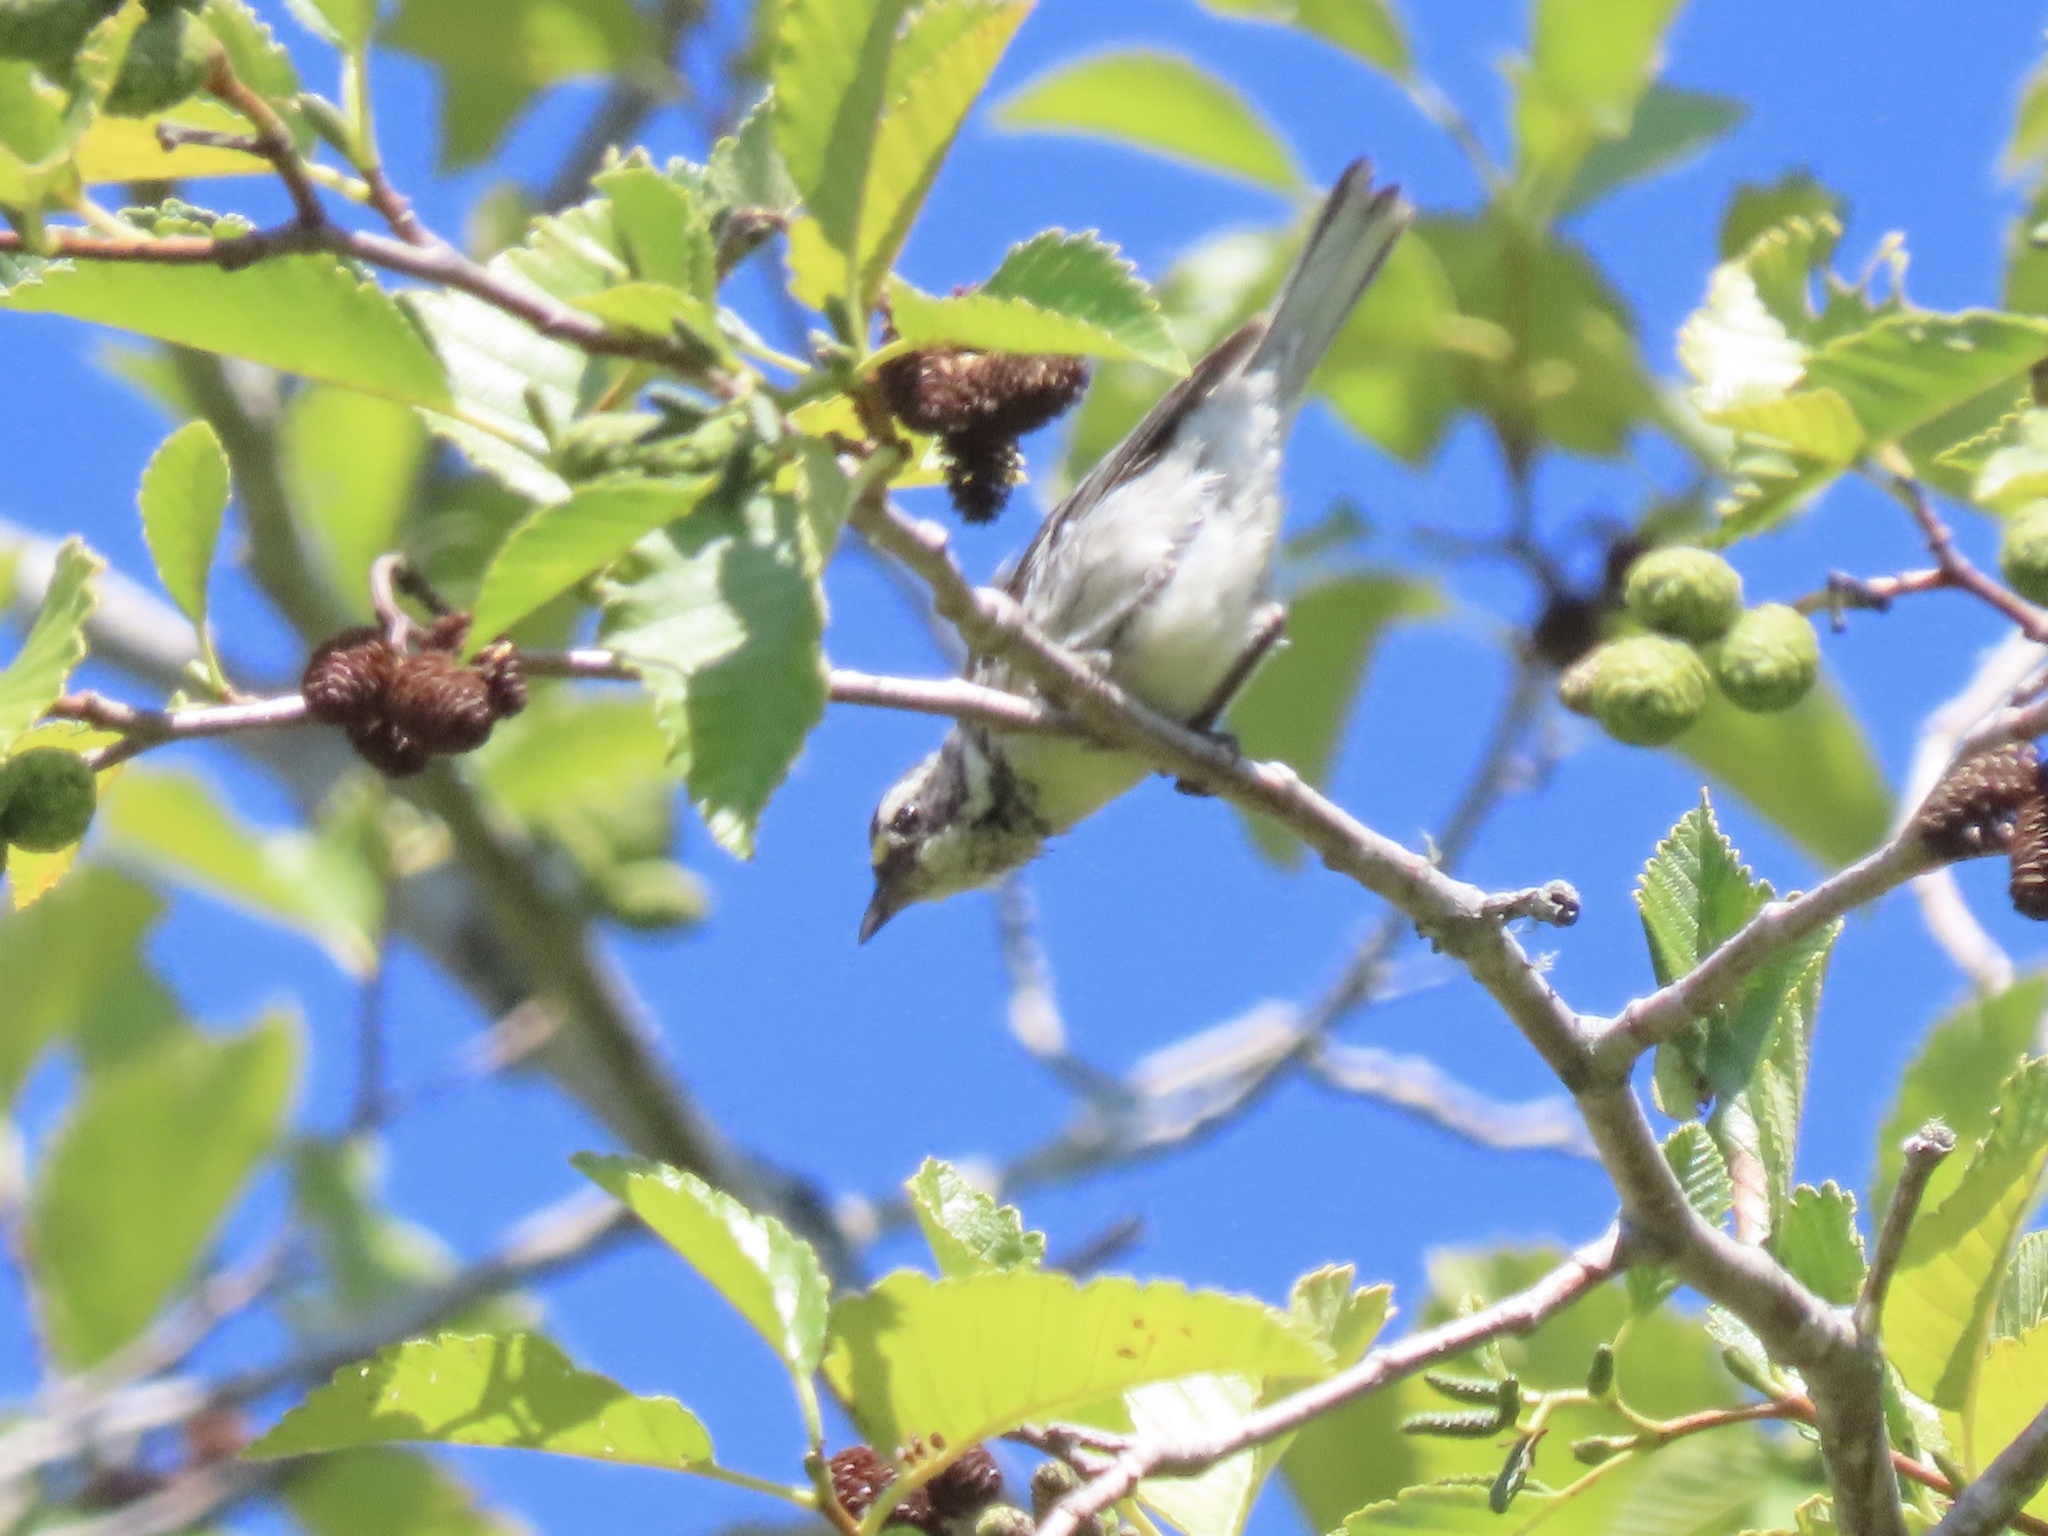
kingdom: Animalia
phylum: Chordata
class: Aves
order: Passeriformes
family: Parulidae
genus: Setophaga
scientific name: Setophaga nigrescens
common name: Black-throated gray warbler
